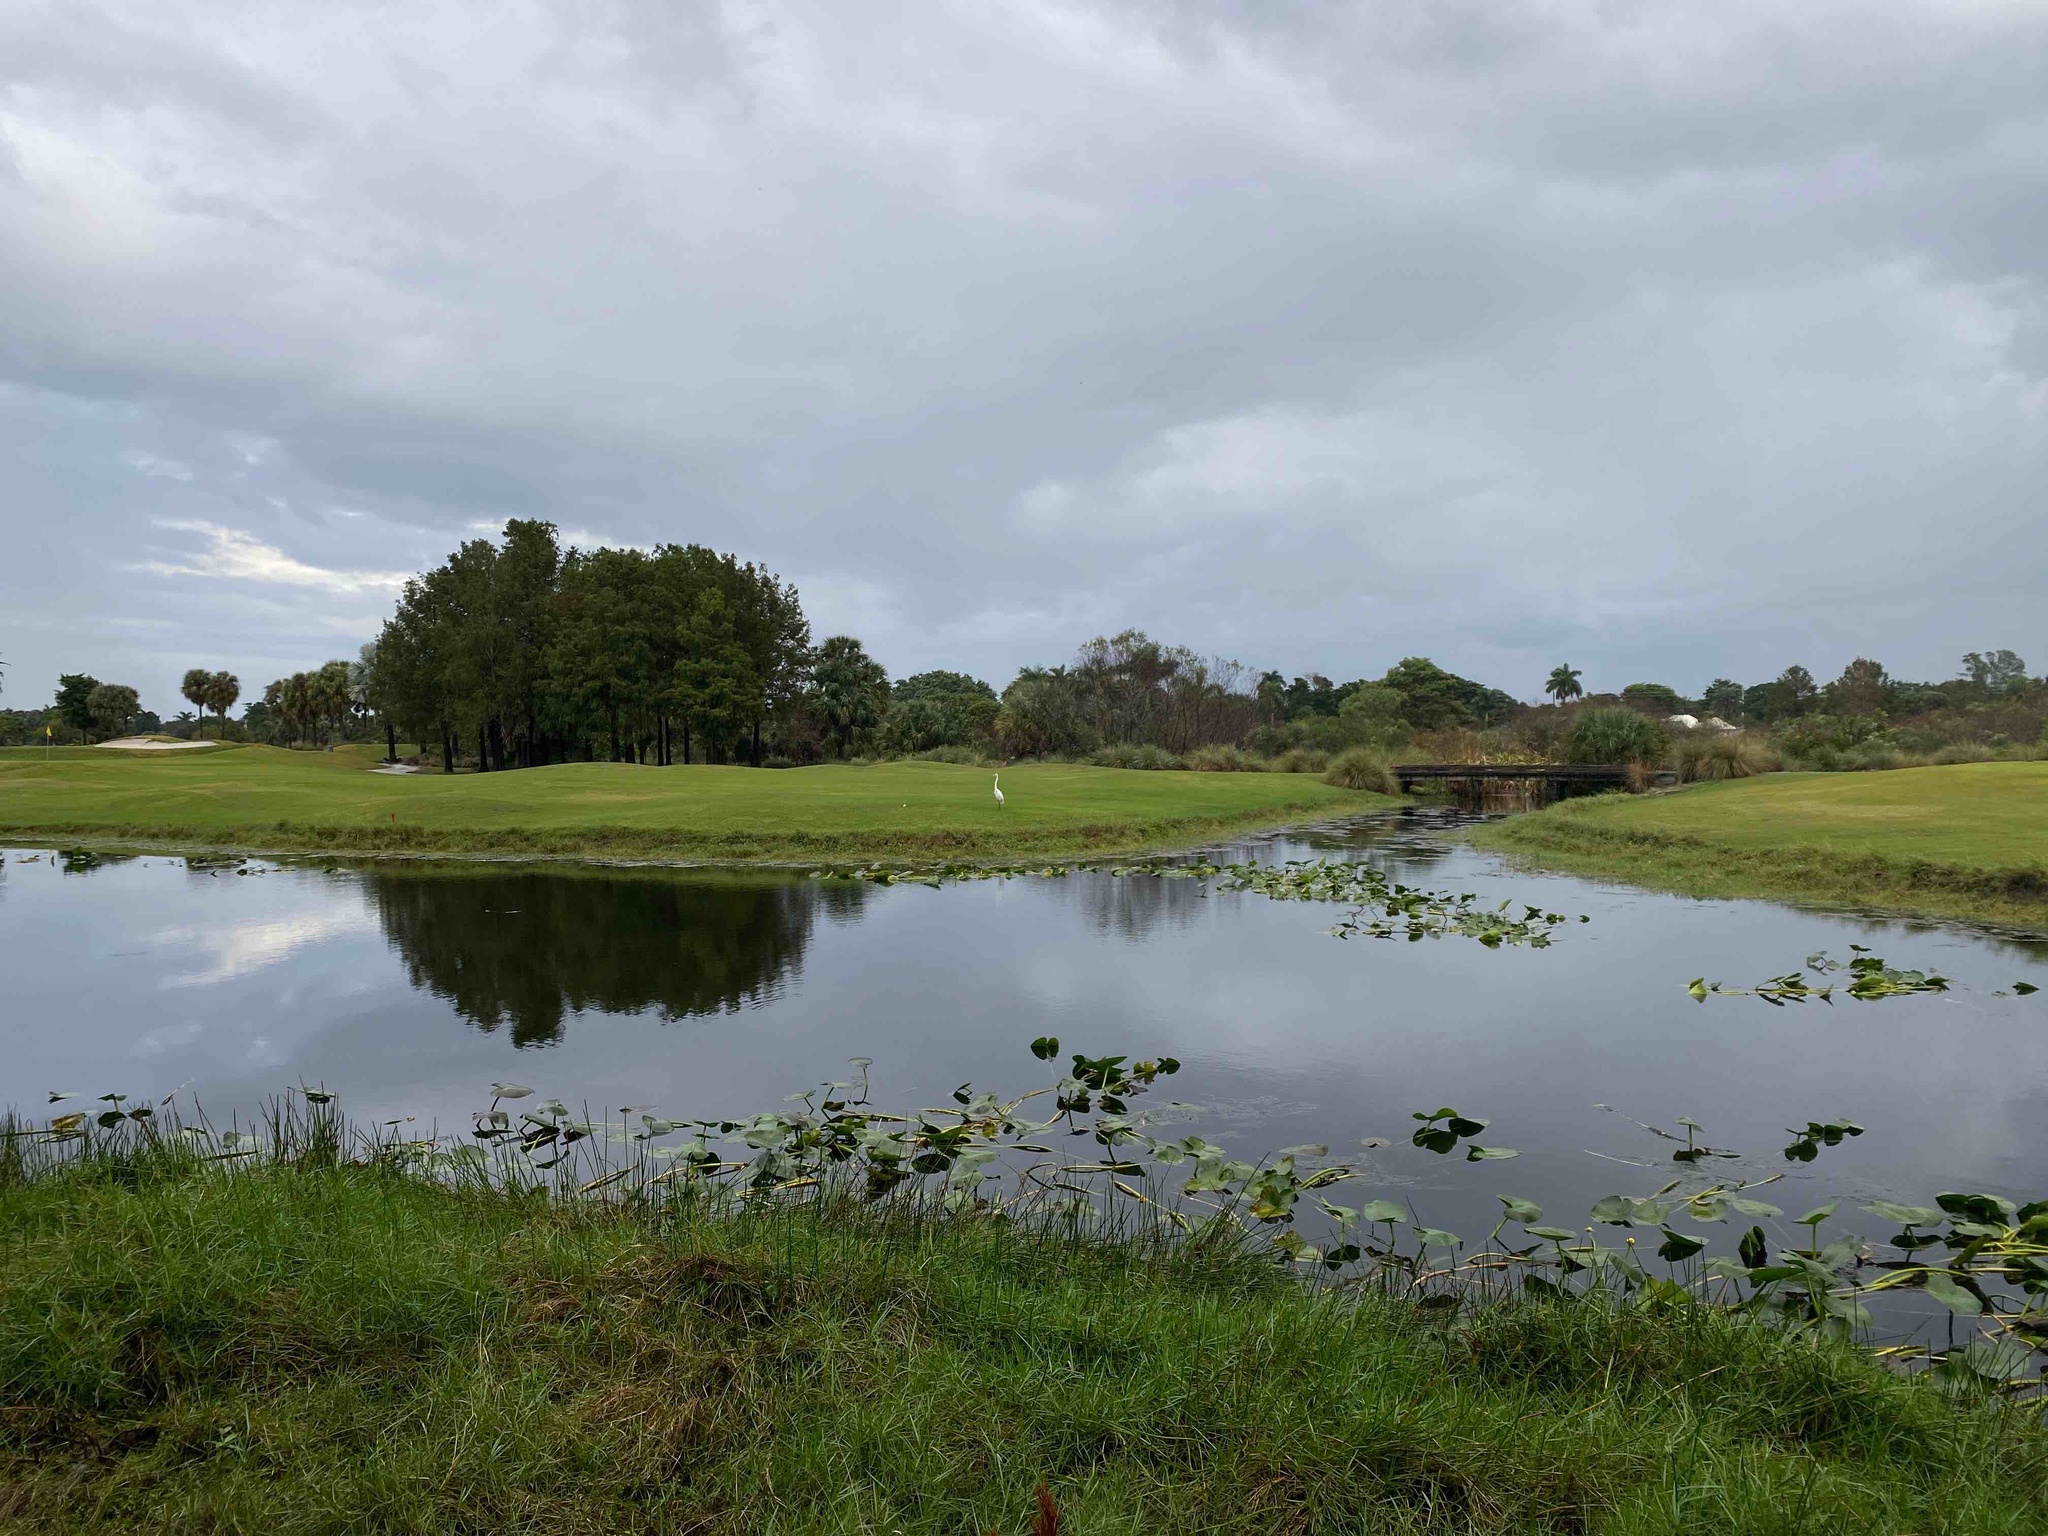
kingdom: Animalia
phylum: Chordata
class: Aves
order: Pelecaniformes
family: Ardeidae
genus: Ardea
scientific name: Ardea alba
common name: Great egret
